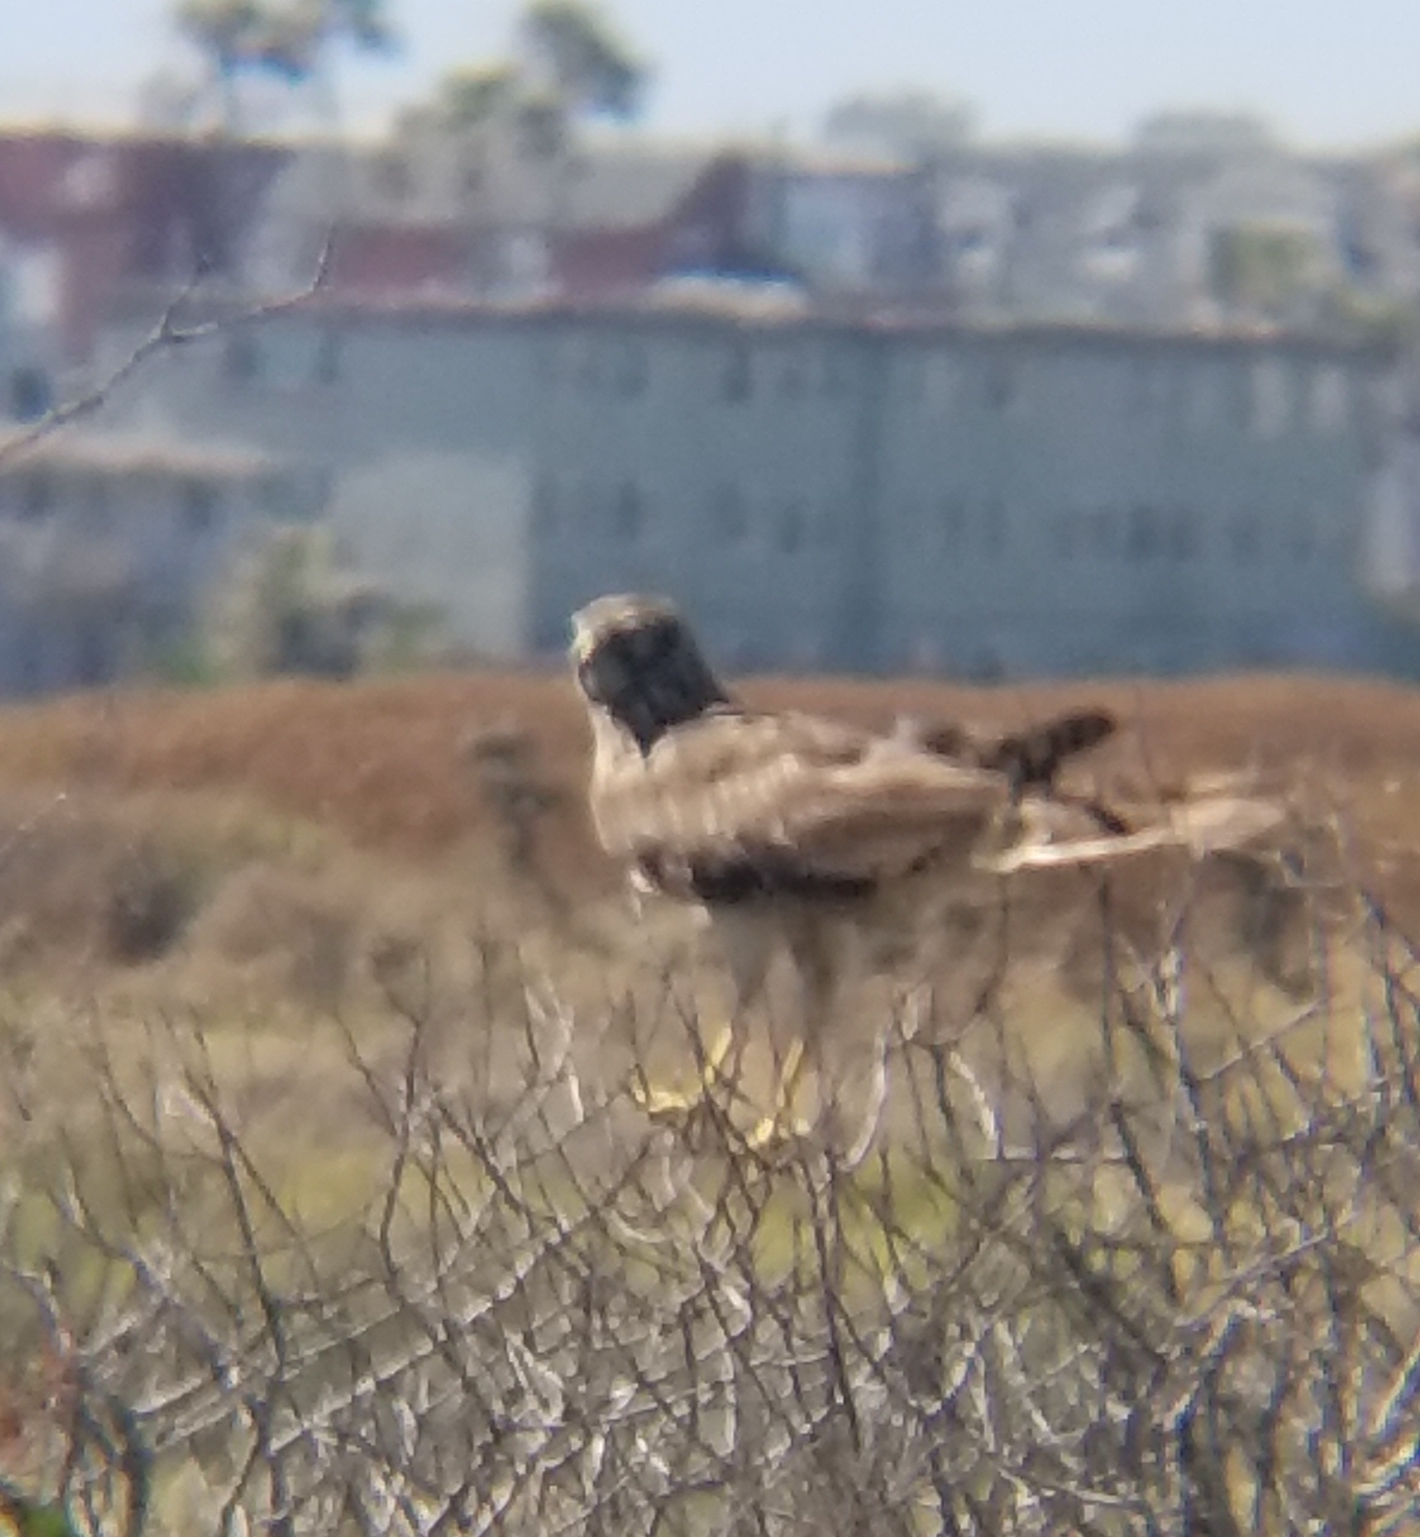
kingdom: Animalia
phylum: Chordata
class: Aves
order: Accipitriformes
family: Accipitridae
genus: Circus
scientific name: Circus cyaneus
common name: Hen harrier
